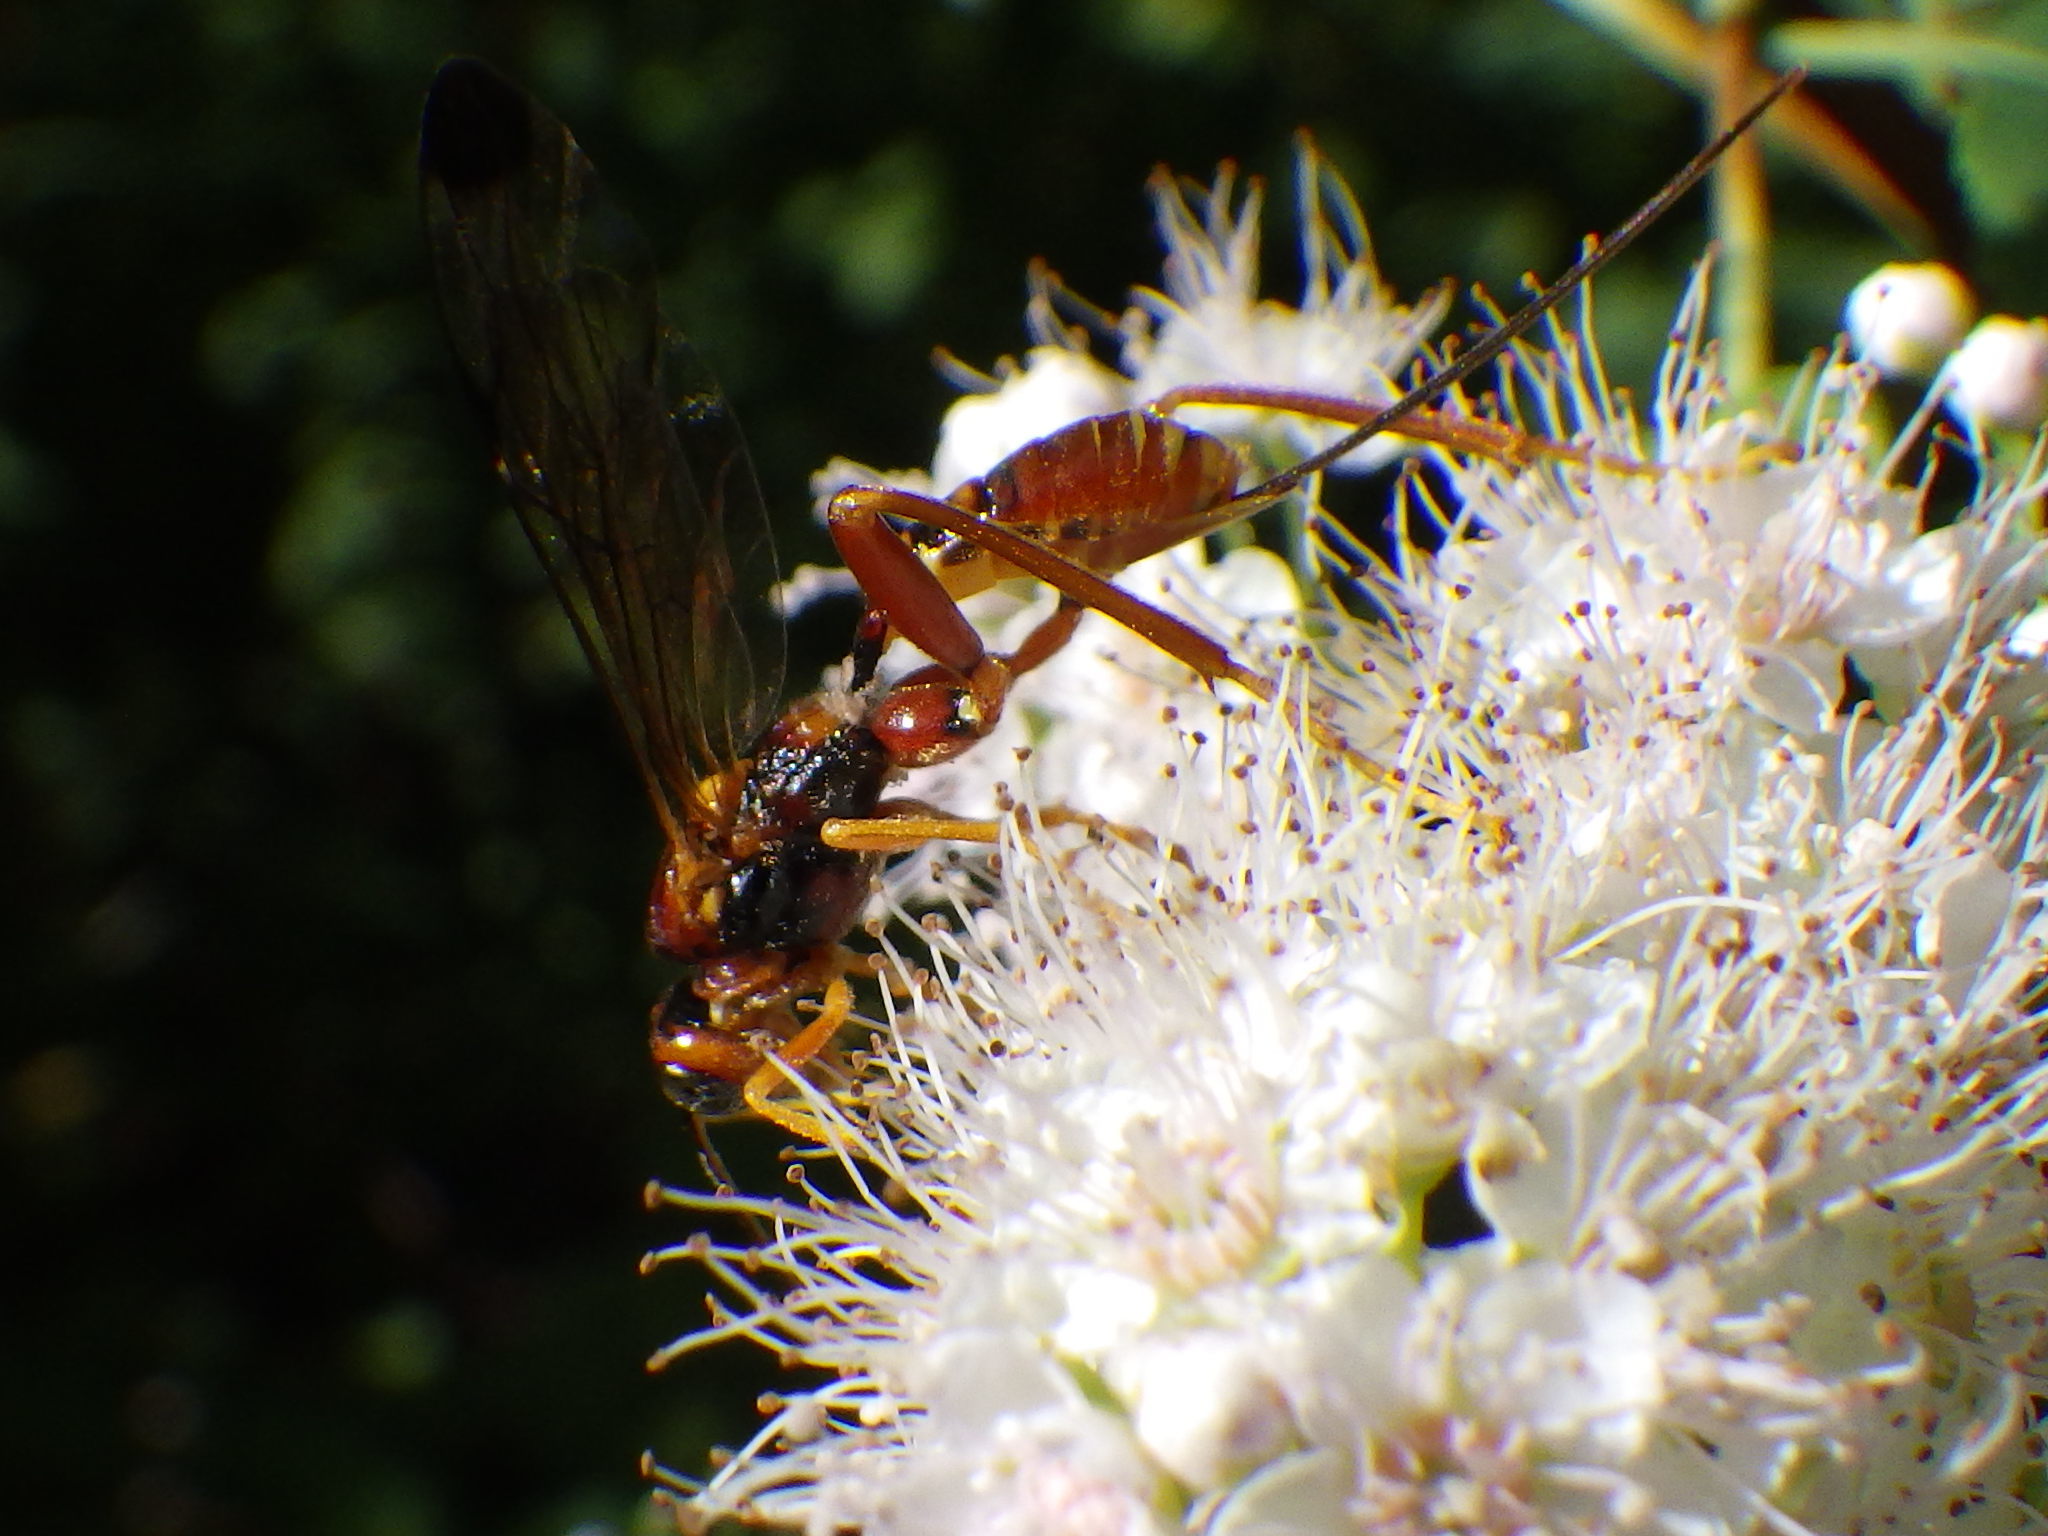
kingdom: Animalia
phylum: Arthropoda
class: Insecta
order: Hymenoptera
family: Ichneumonidae
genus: Spilopteron
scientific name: Spilopteron vicinum
